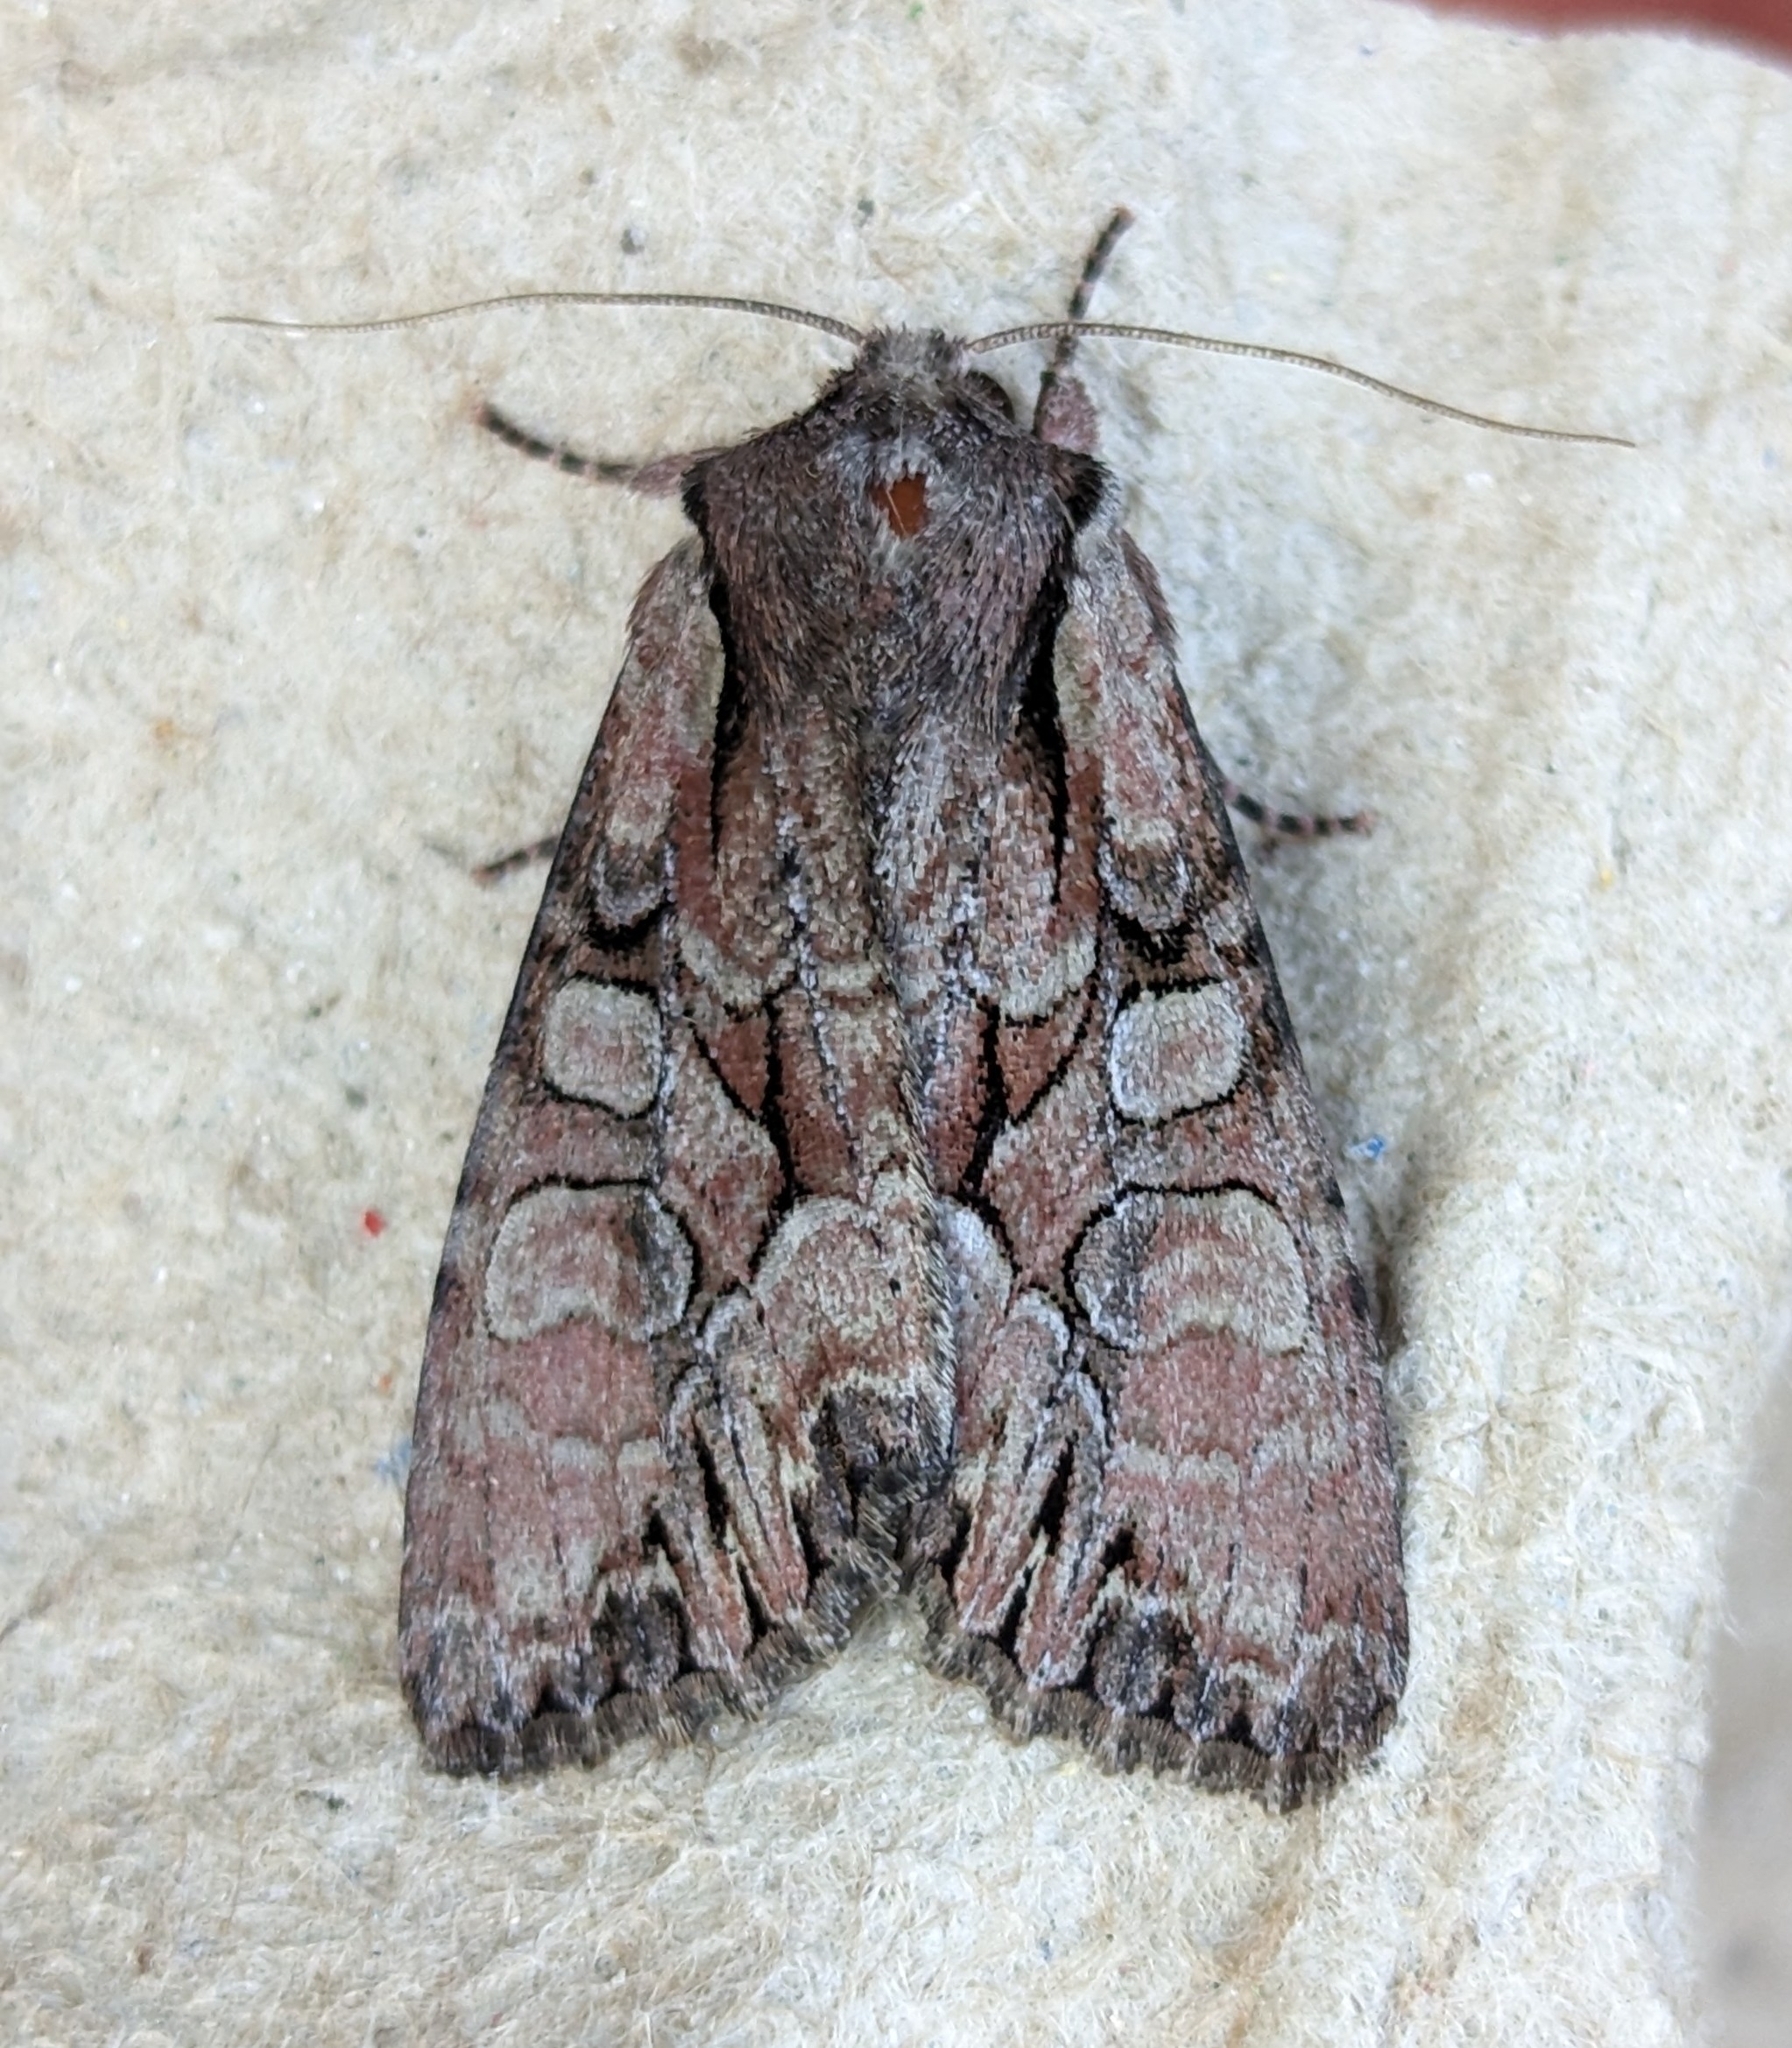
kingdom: Animalia
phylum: Arthropoda
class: Insecta
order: Lepidoptera
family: Noctuidae
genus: Lacanobia
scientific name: Lacanobia subjuncta
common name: Speckled cutworm moth
